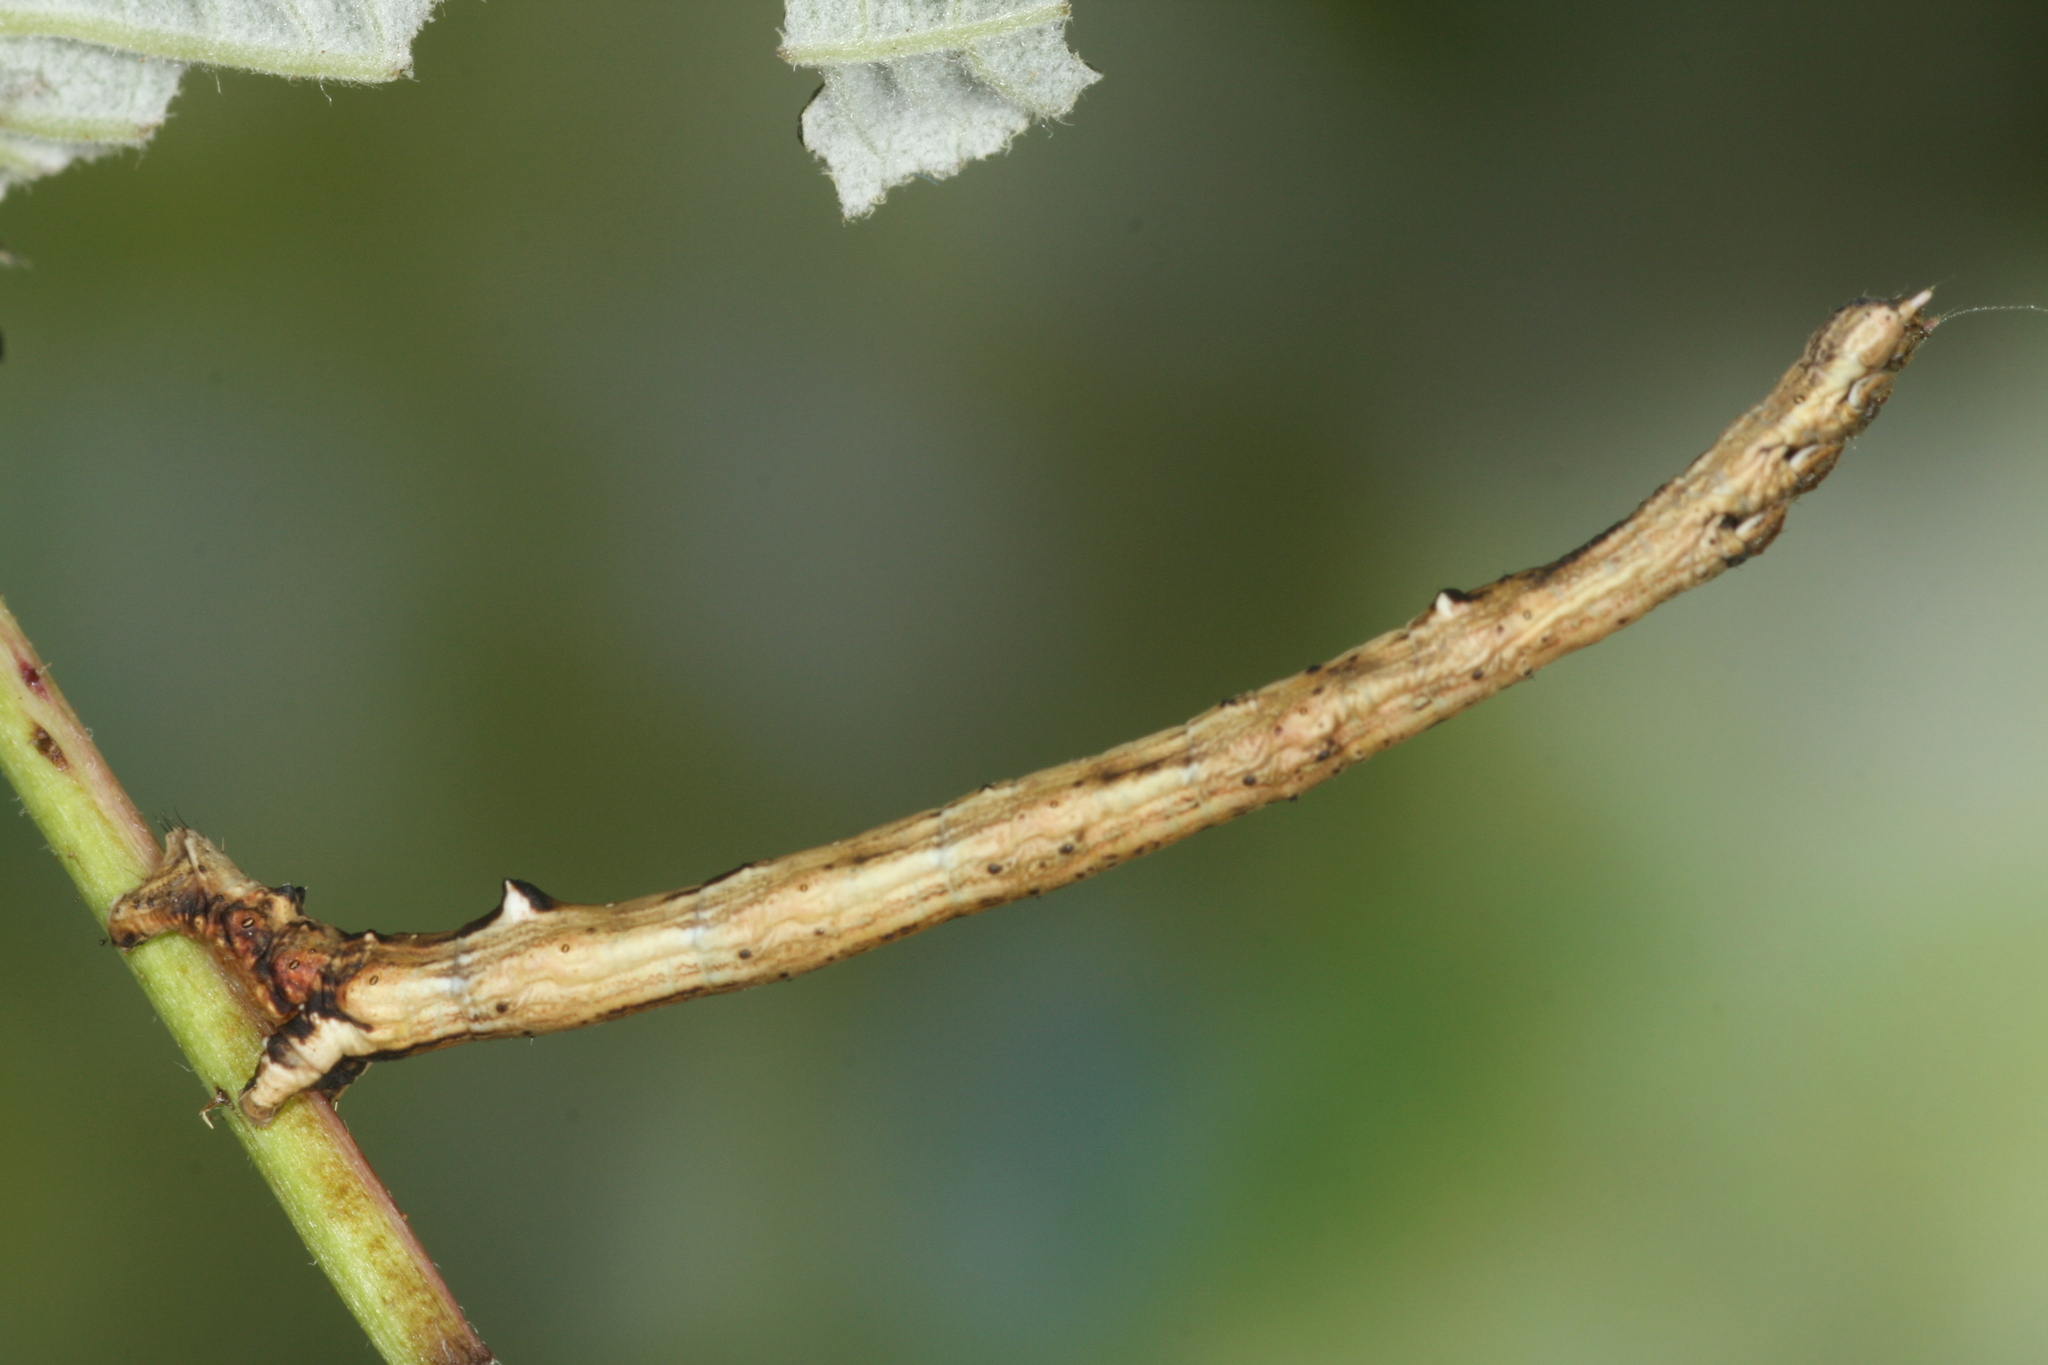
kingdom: Animalia
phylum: Arthropoda
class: Insecta
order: Lepidoptera
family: Geometridae
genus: Angerona
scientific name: Angerona prunaria
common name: Orange moth
